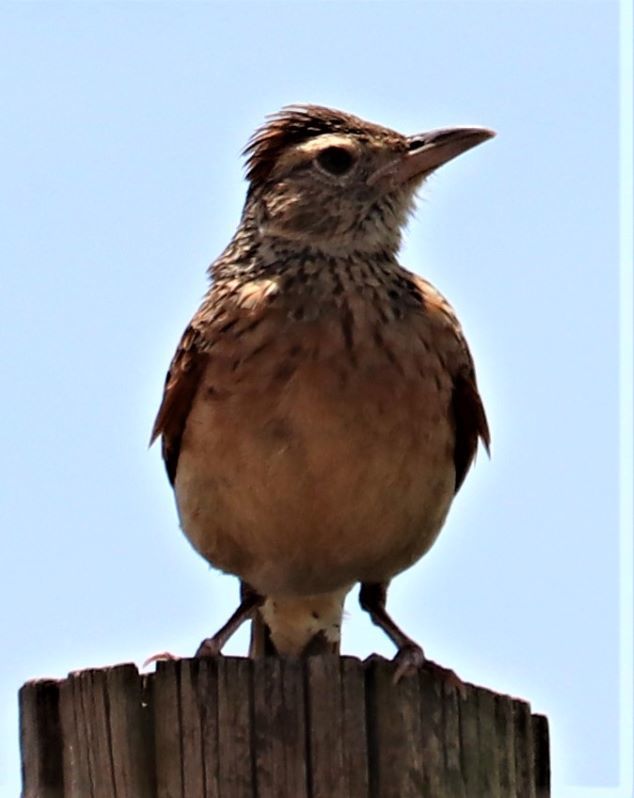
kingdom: Animalia
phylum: Chordata
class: Aves
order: Passeriformes
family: Alaudidae
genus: Mirafra
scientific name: Mirafra africana
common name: Rufous-naped lark
